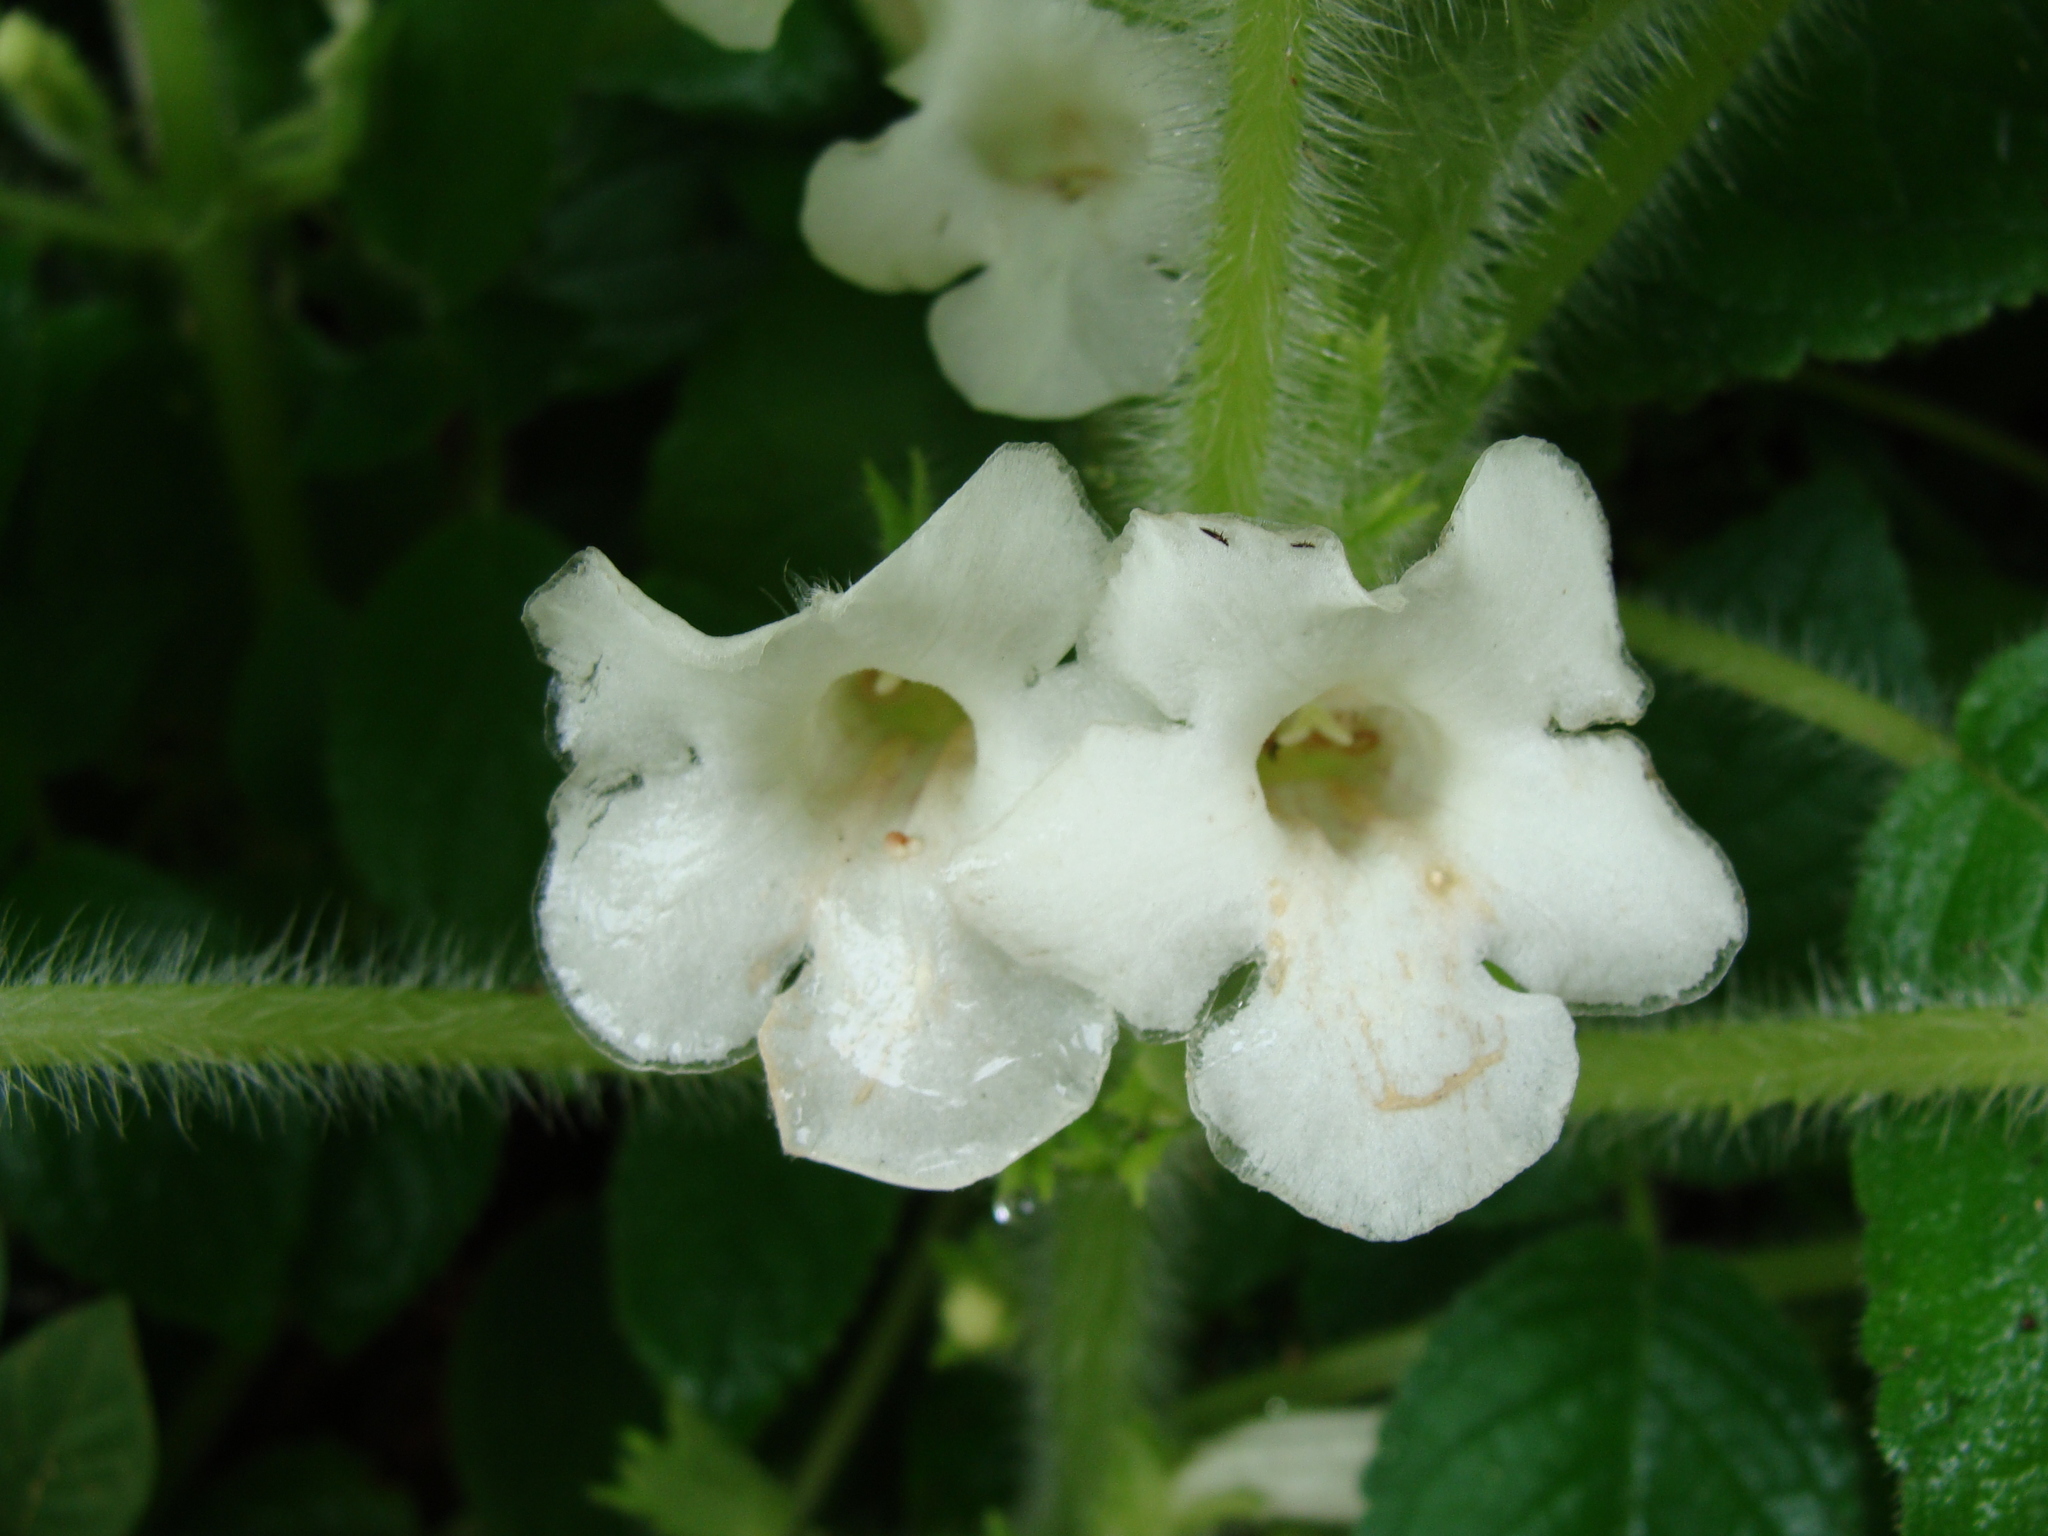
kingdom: Plantae
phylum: Tracheophyta
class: Magnoliopsida
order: Lamiales
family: Gesneriaceae
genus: Chrysothemis
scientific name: Chrysothemis panamensis
